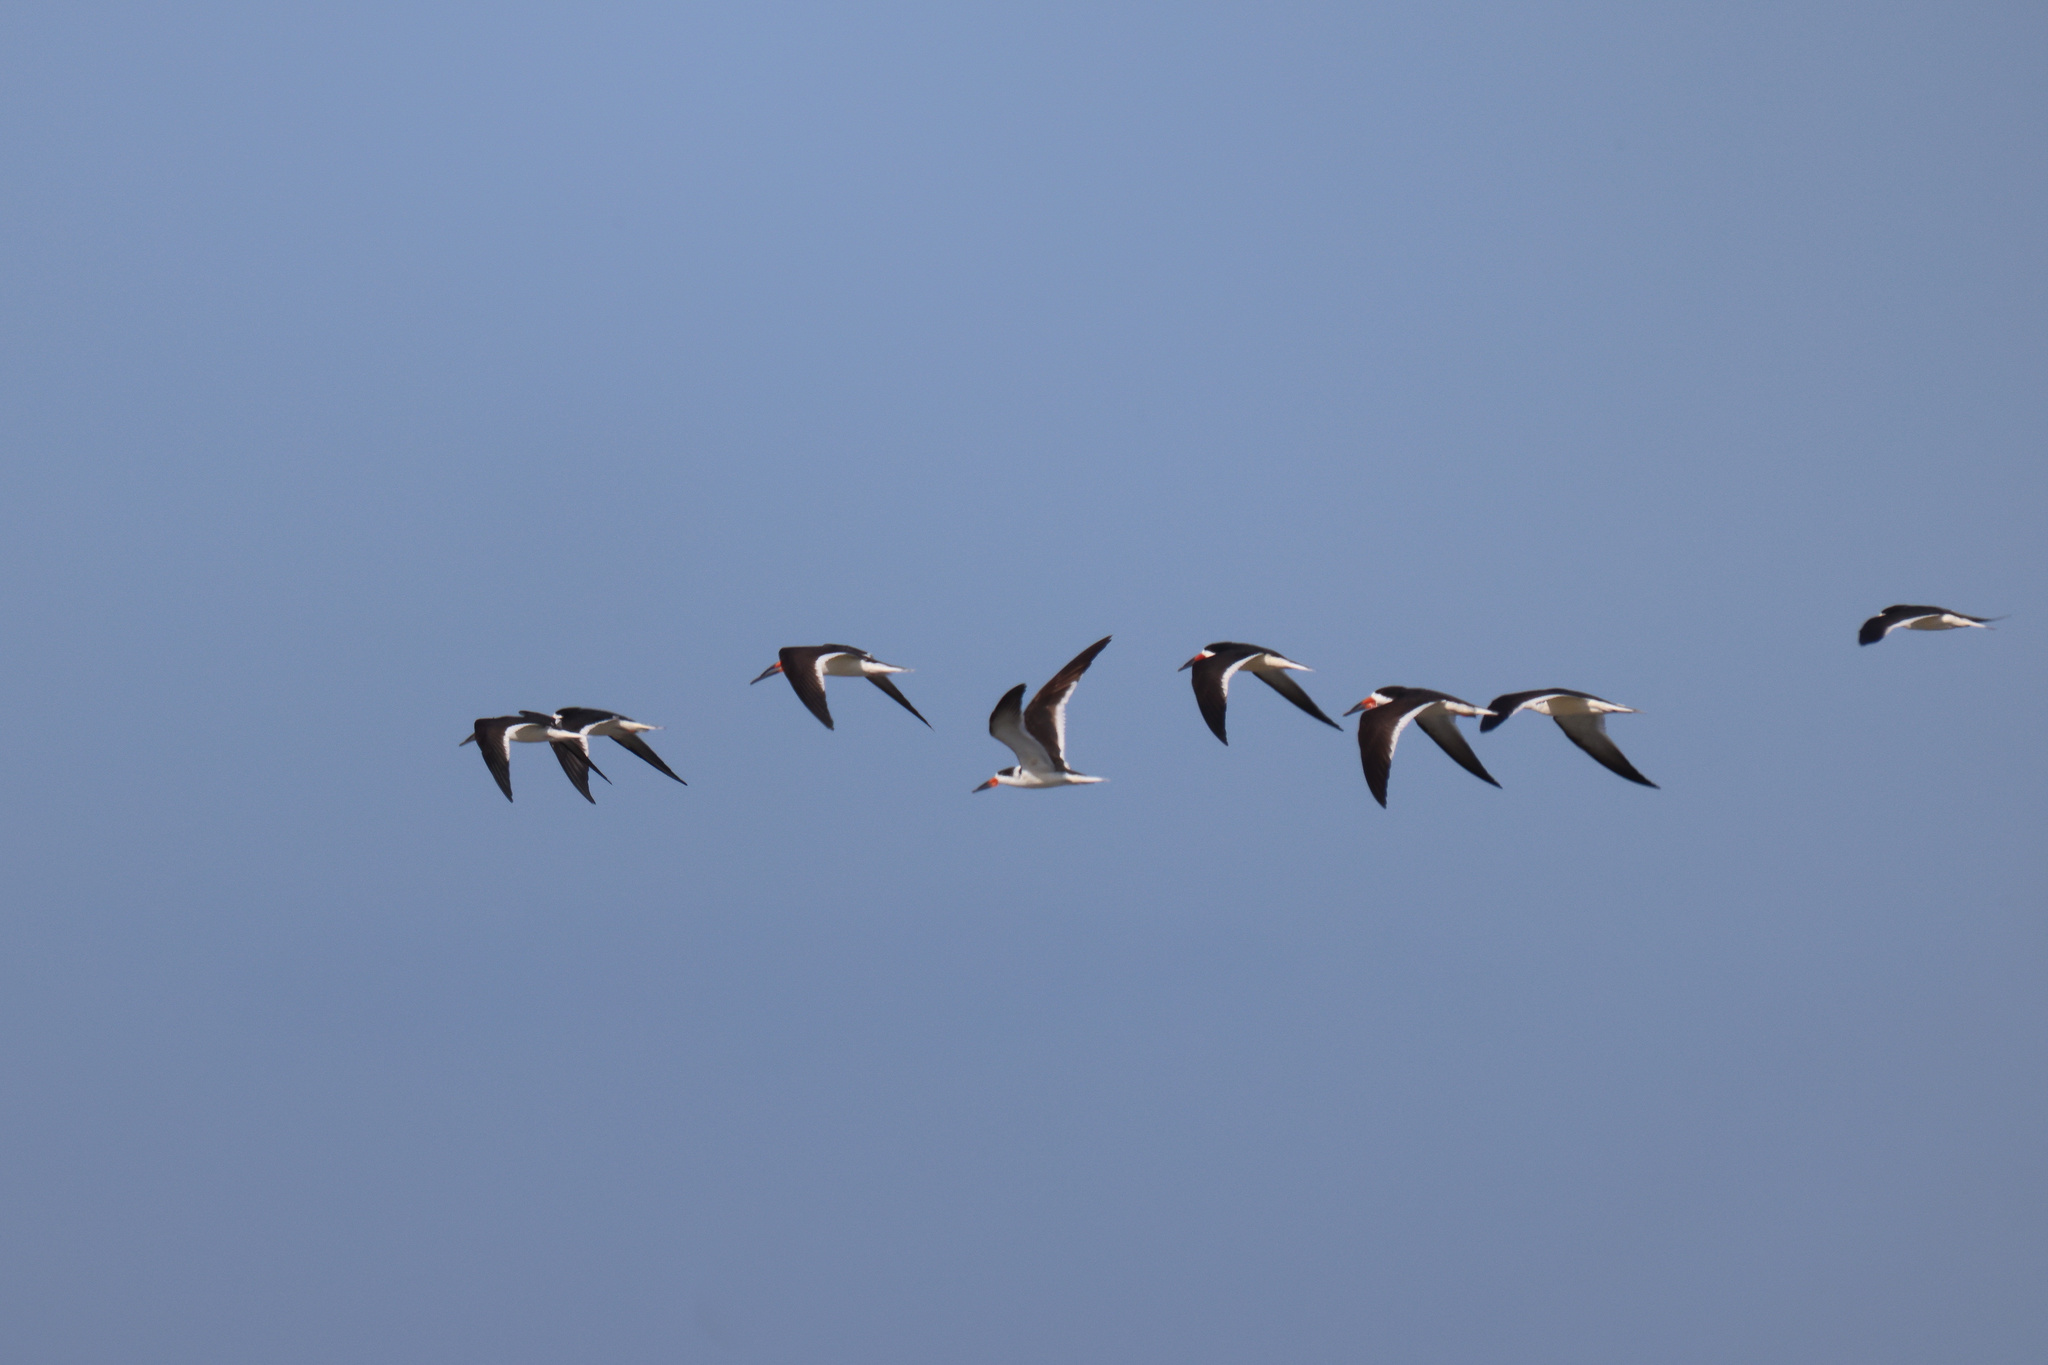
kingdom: Animalia
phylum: Chordata
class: Aves
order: Charadriiformes
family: Laridae
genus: Rynchops
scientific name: Rynchops niger
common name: Black skimmer
